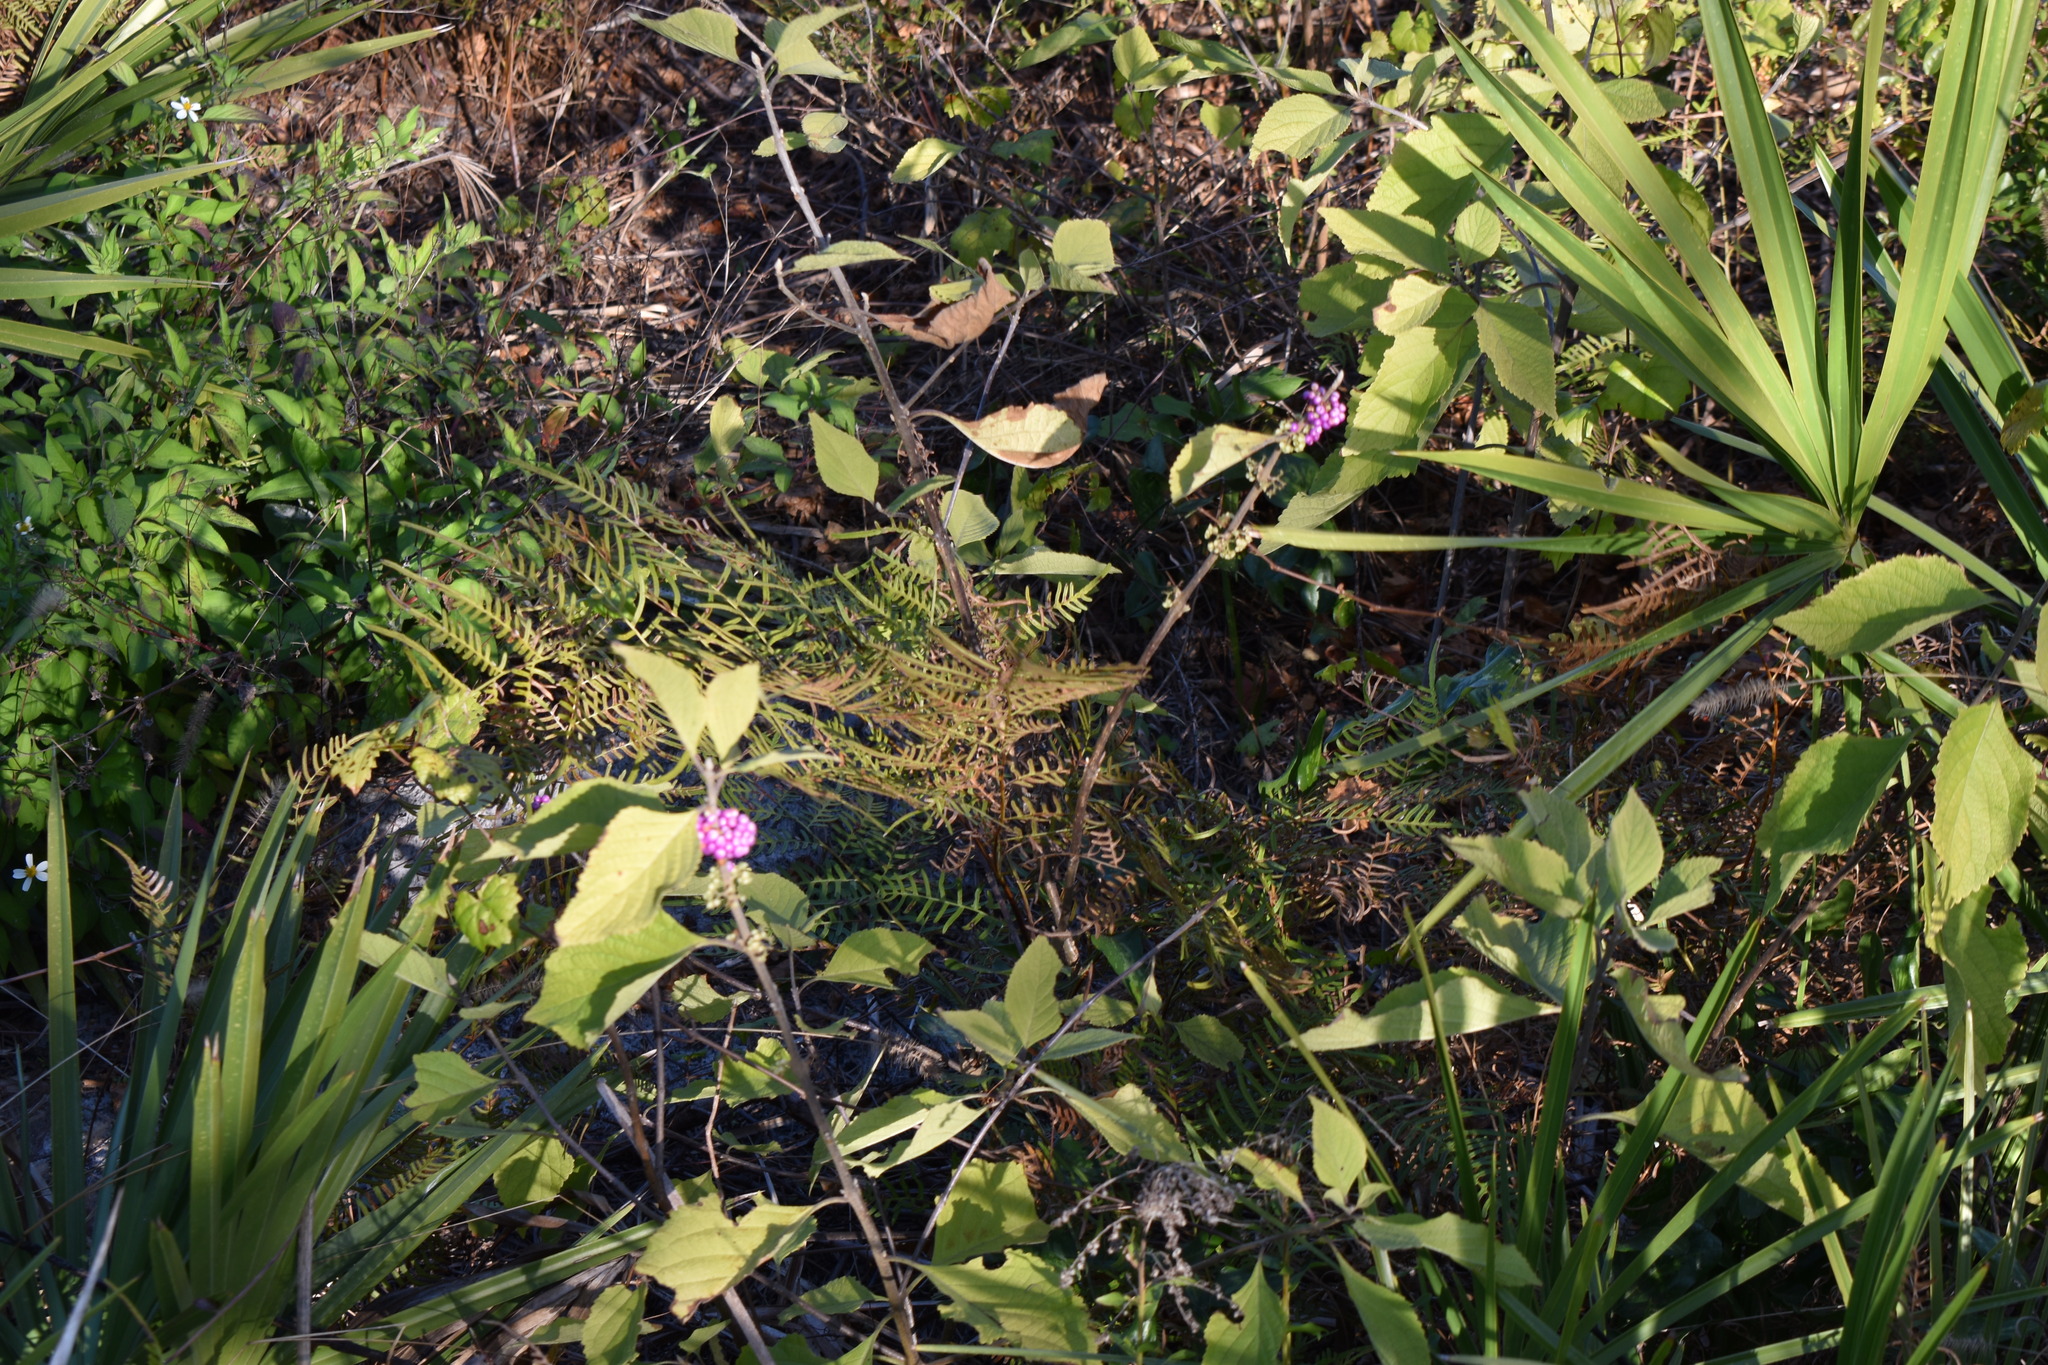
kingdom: Plantae
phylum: Tracheophyta
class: Magnoliopsida
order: Lamiales
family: Lamiaceae
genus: Callicarpa
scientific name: Callicarpa americana
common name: American beautyberry
